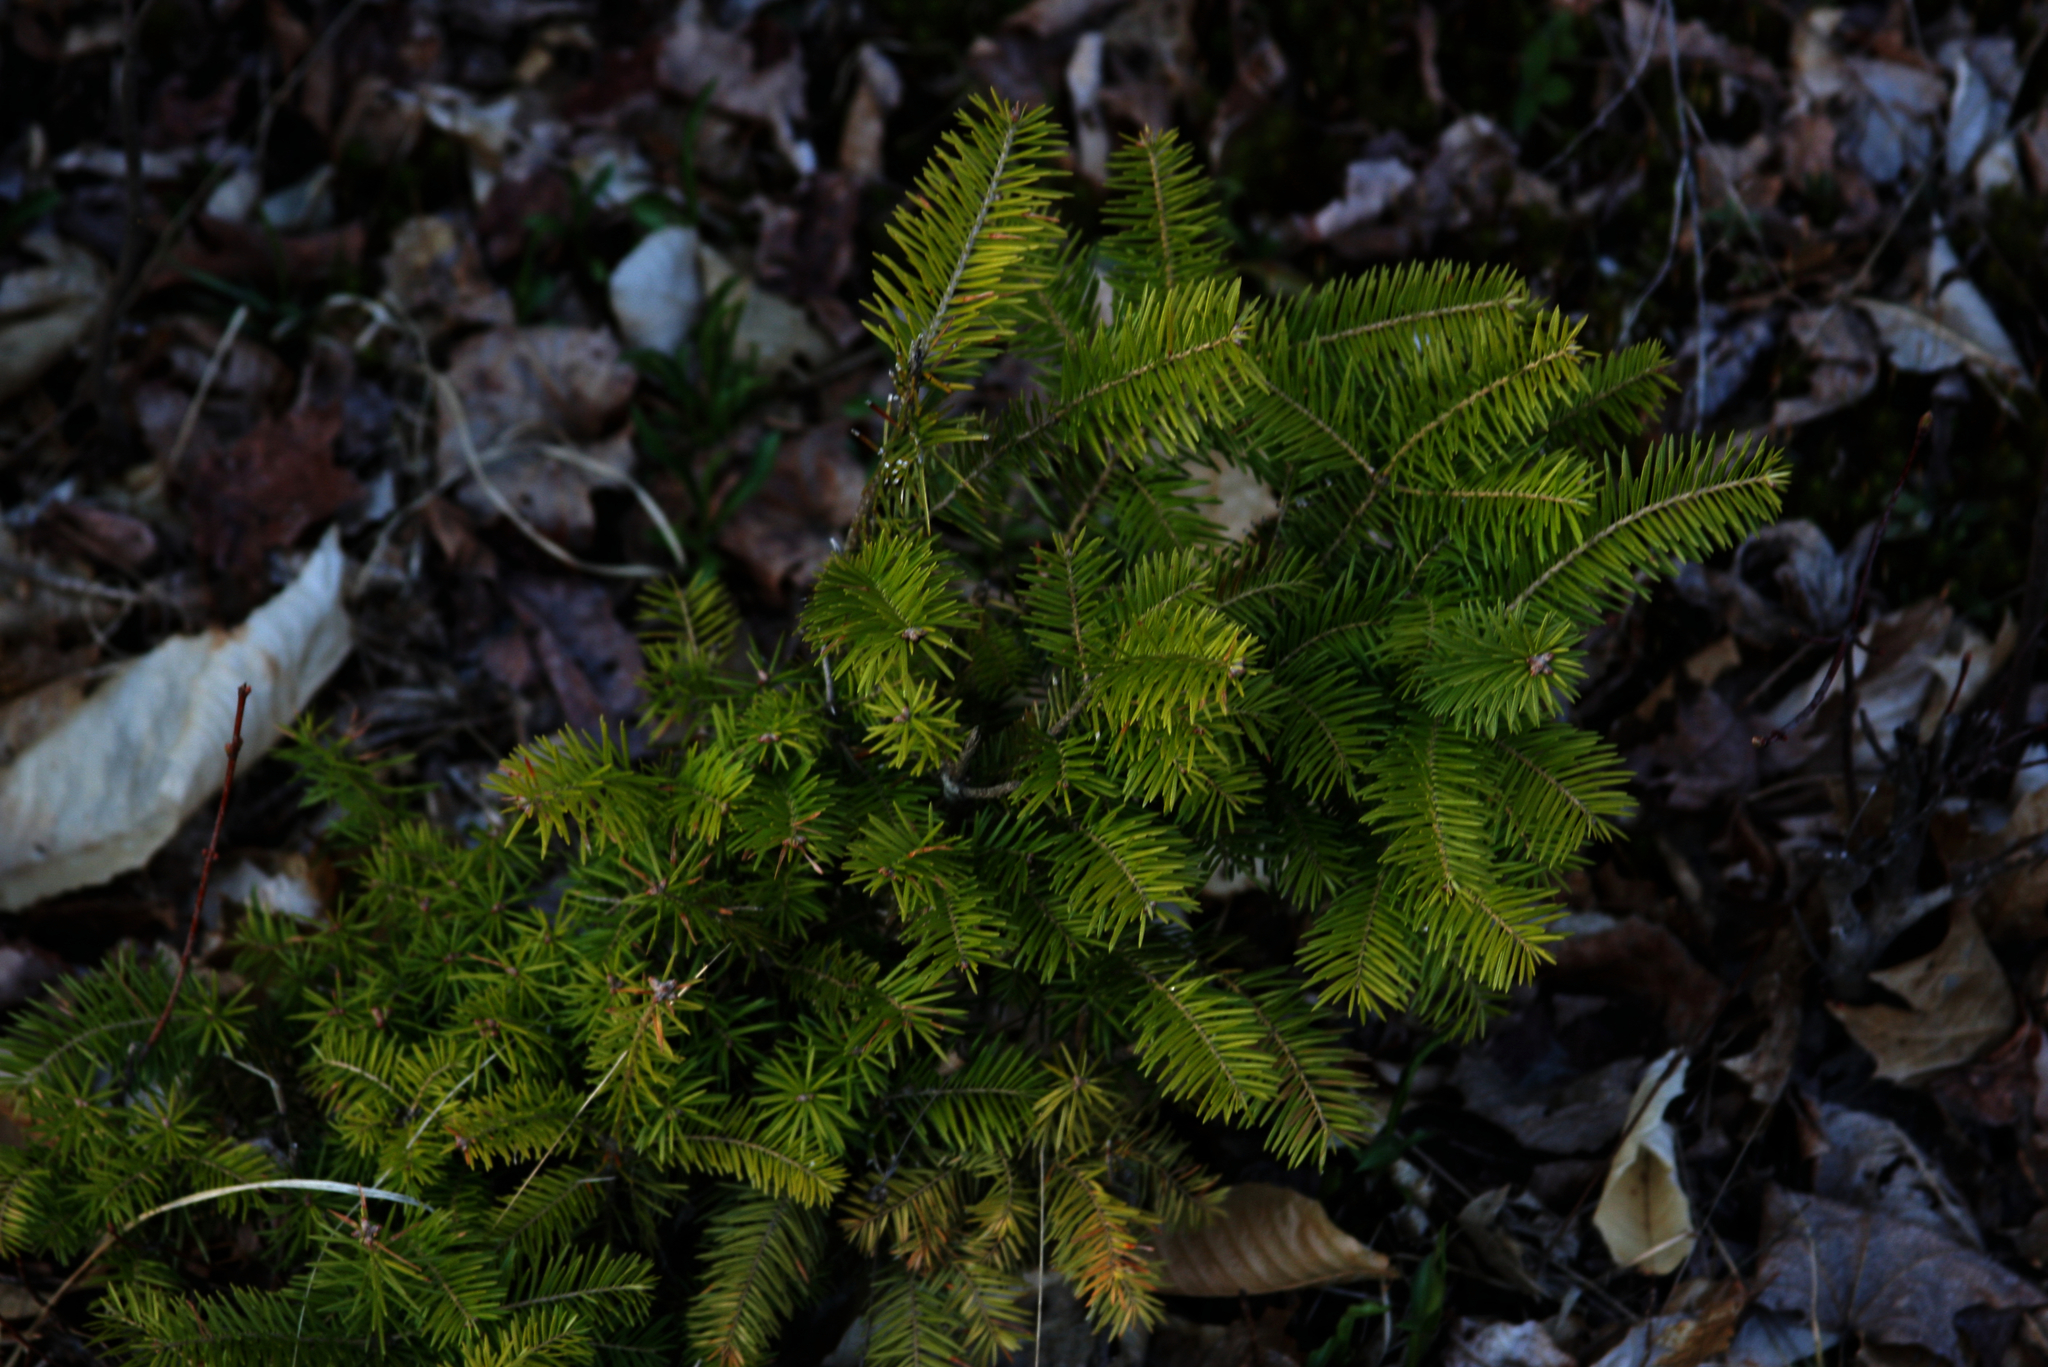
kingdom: Plantae
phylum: Tracheophyta
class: Pinopsida
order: Pinales
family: Pinaceae
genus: Abies
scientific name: Abies balsamea
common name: Balsam fir
